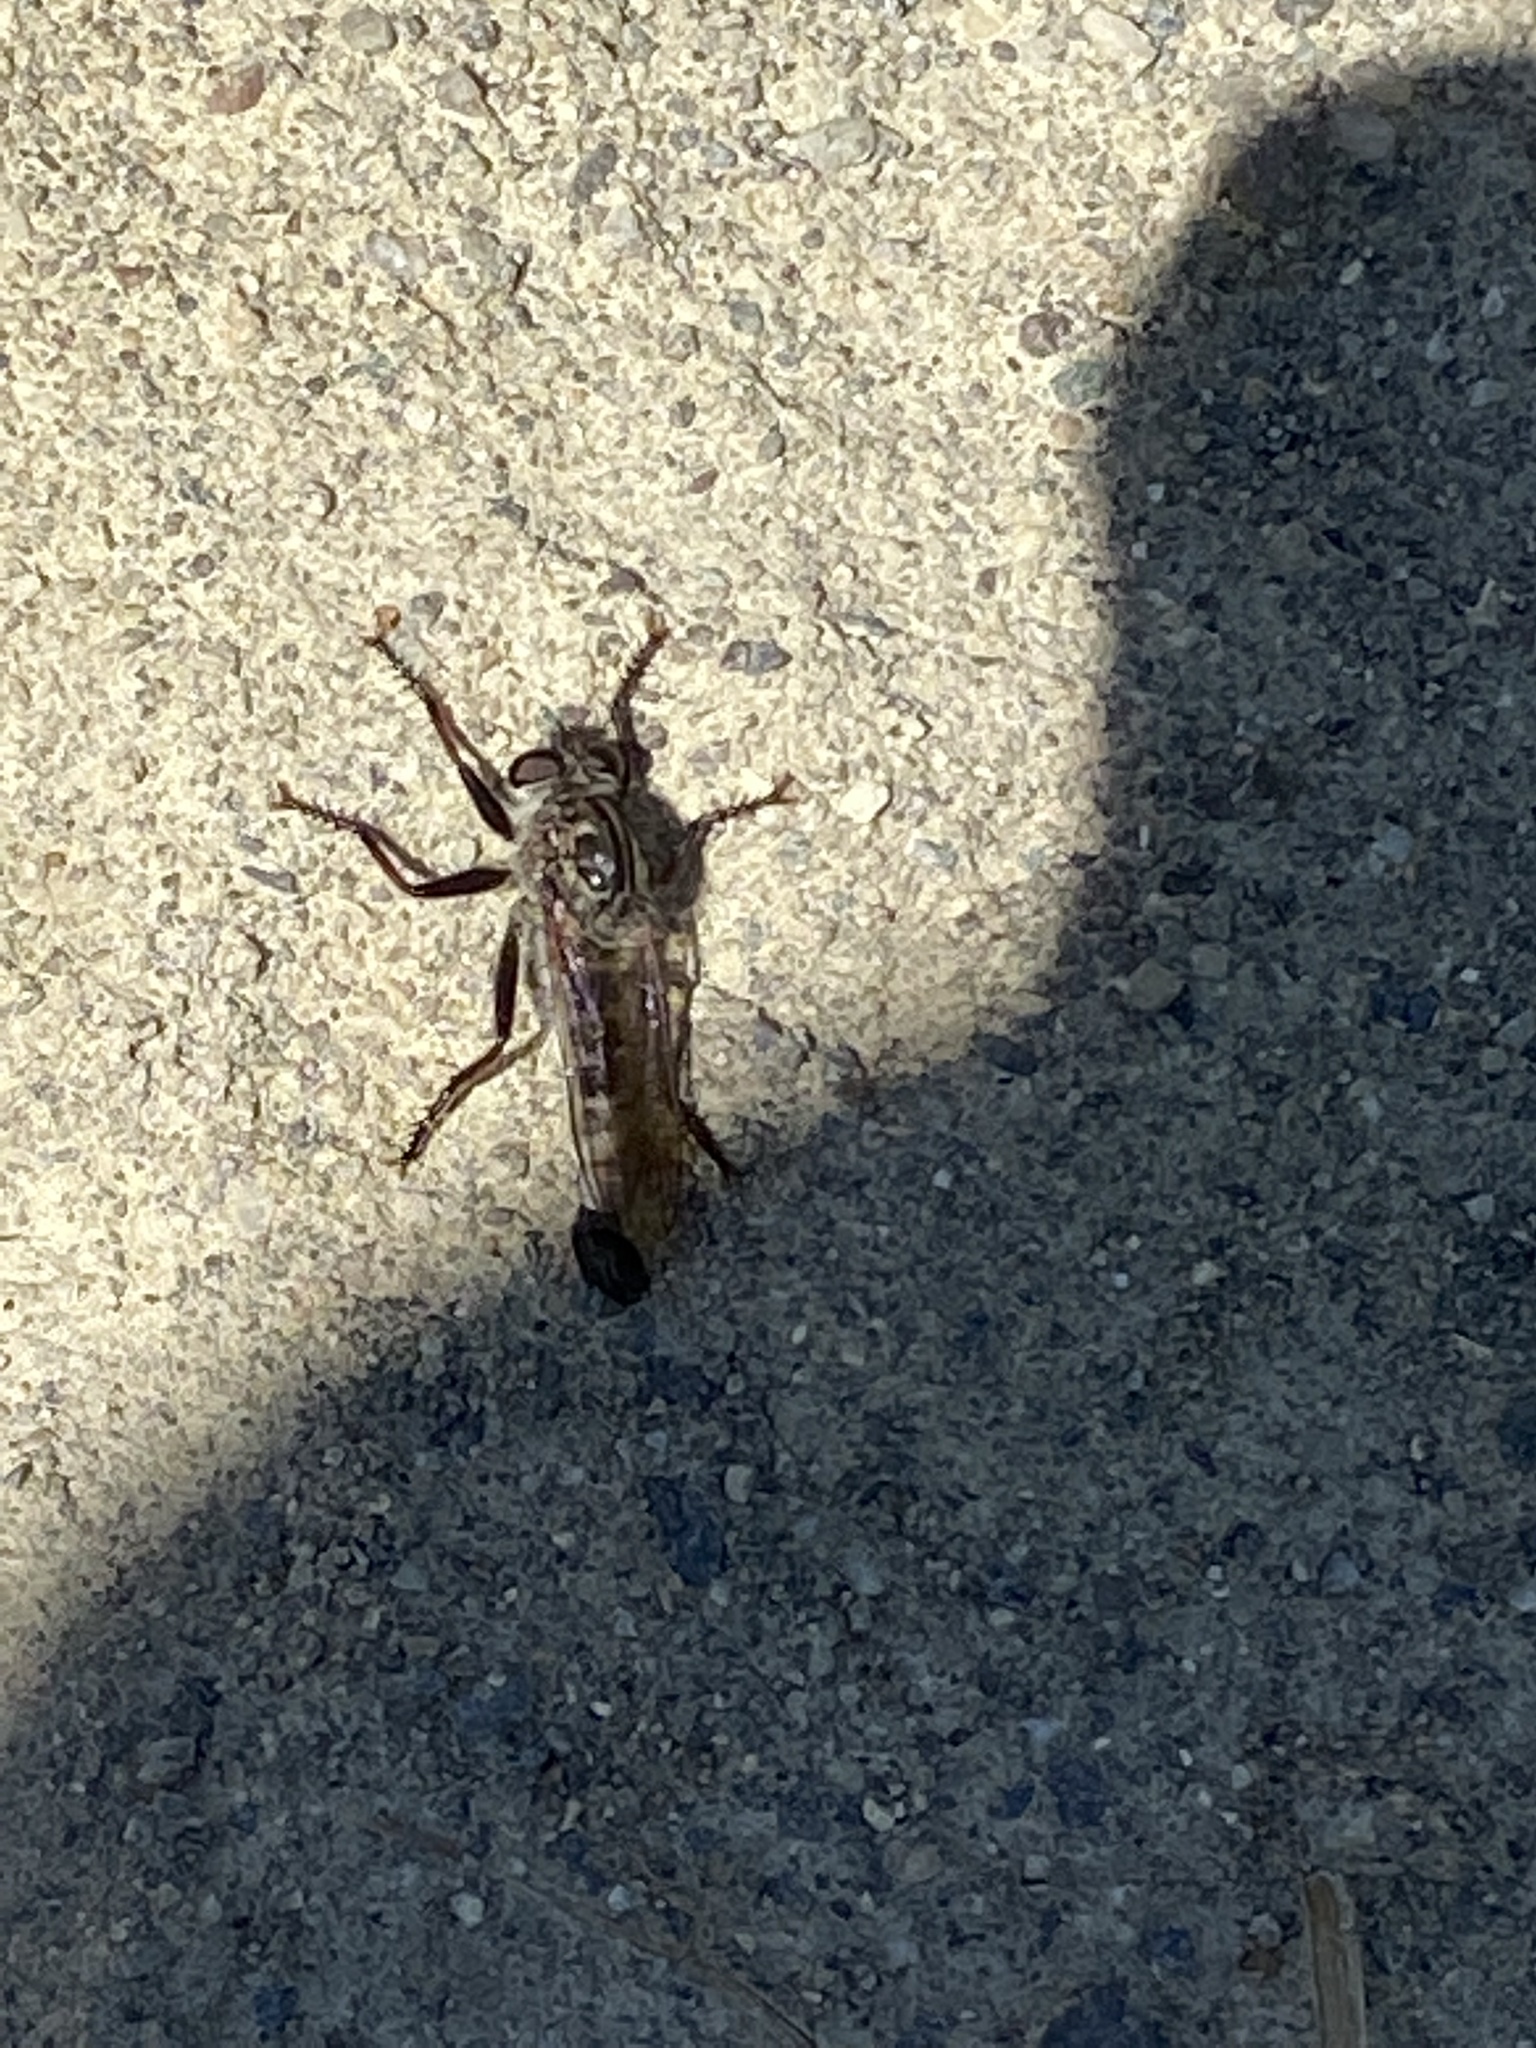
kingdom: Animalia
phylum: Arthropoda
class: Insecta
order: Diptera
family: Asilidae
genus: Efferia
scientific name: Efferia aestuans
